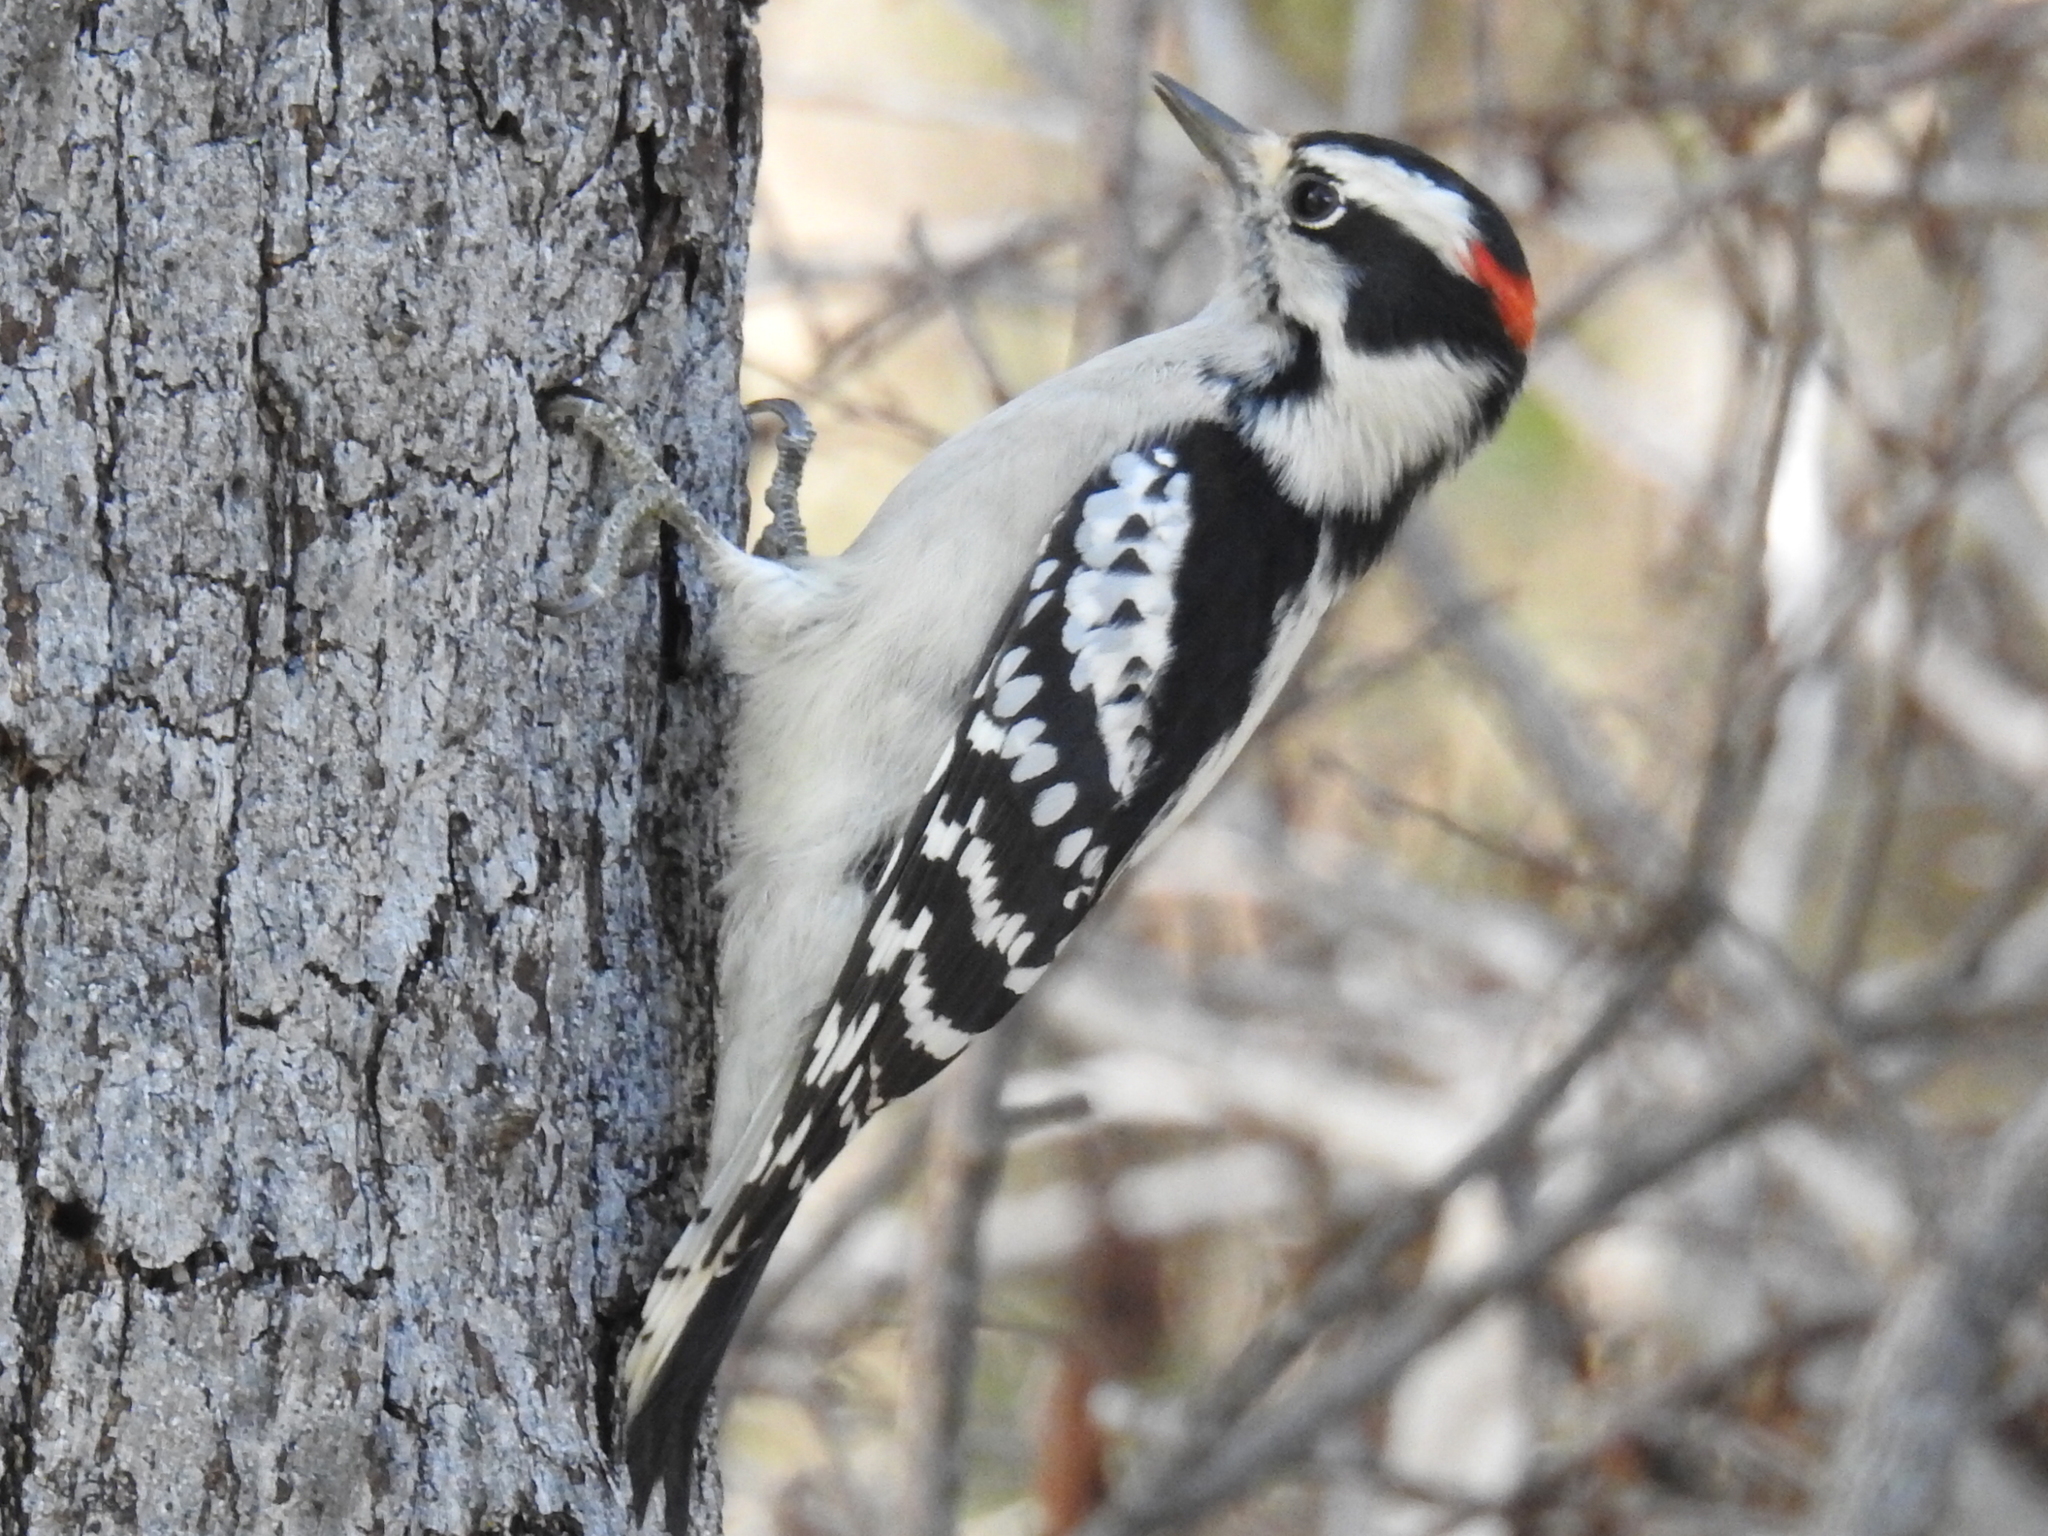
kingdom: Animalia
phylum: Chordata
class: Aves
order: Piciformes
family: Picidae
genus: Dryobates
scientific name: Dryobates pubescens
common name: Downy woodpecker
